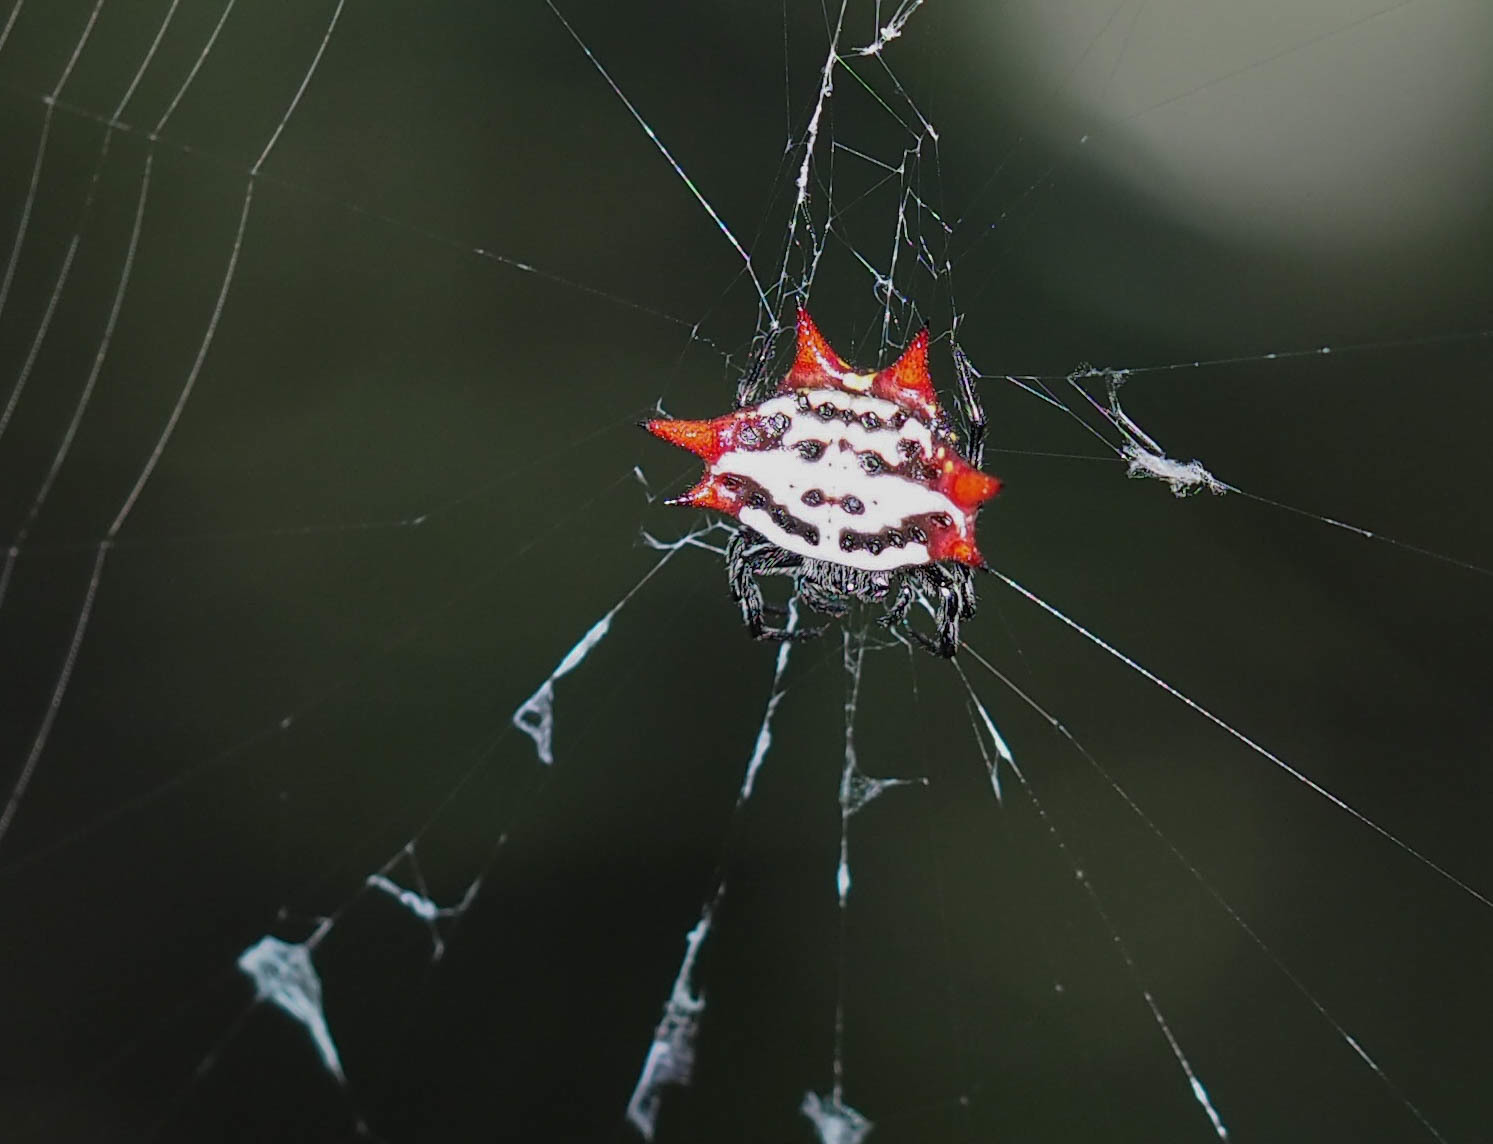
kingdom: Animalia
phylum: Arthropoda
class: Arachnida
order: Araneae
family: Araneidae
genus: Gasteracantha
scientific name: Gasteracantha cancriformis
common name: Orb weavers
